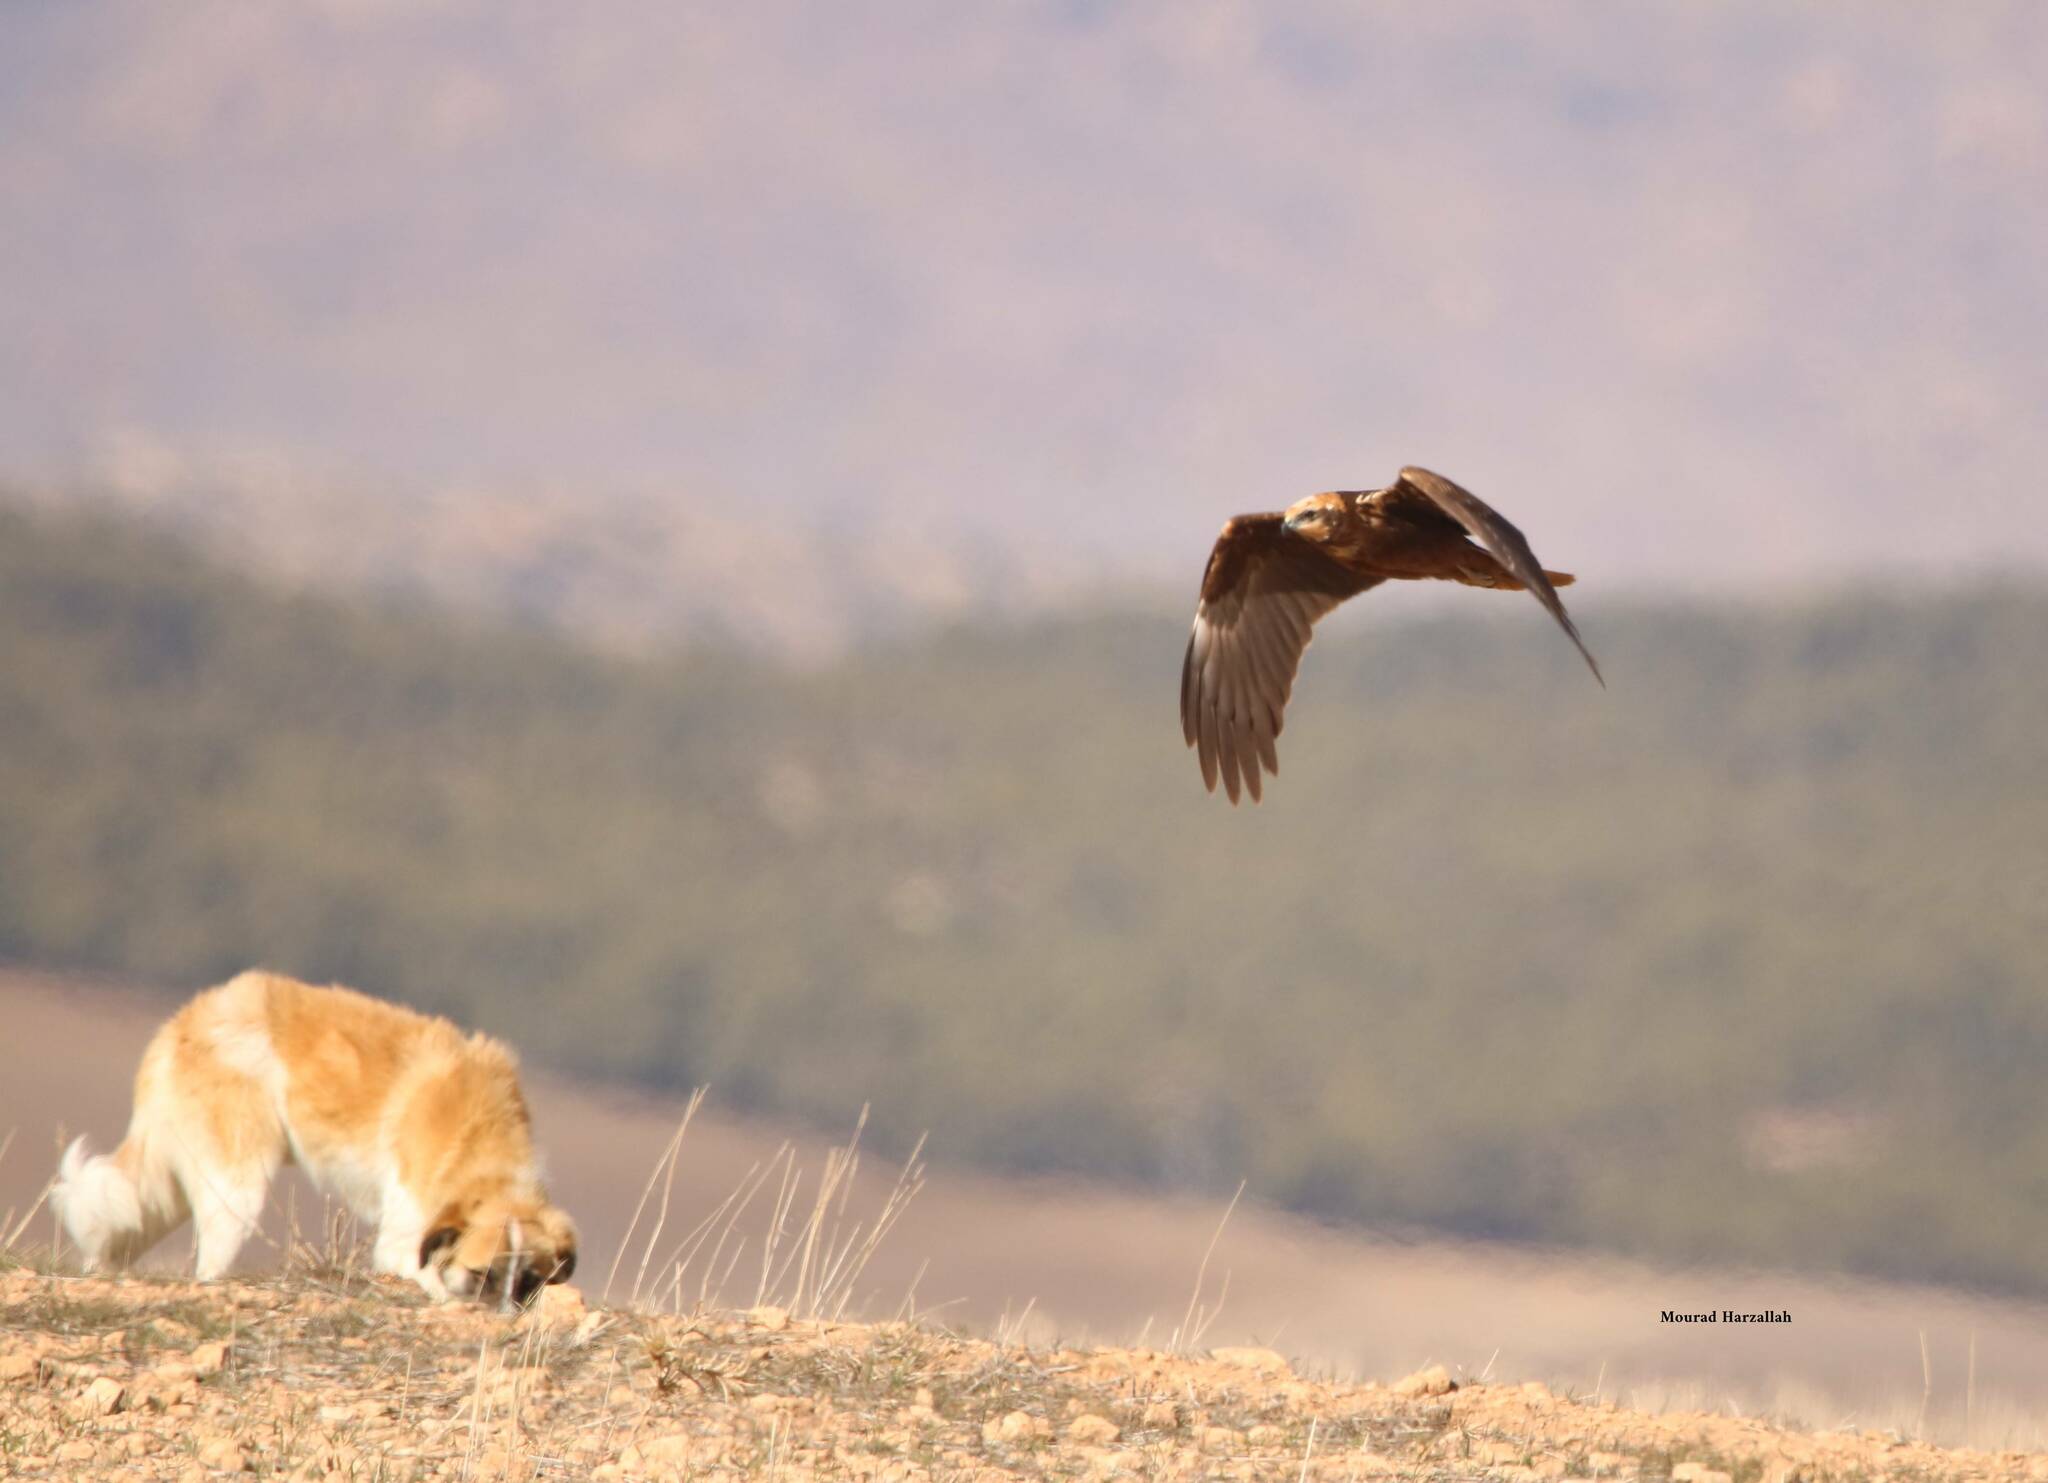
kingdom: Animalia
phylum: Chordata
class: Aves
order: Accipitriformes
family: Accipitridae
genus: Circus
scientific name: Circus aeruginosus
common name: Western marsh harrier
